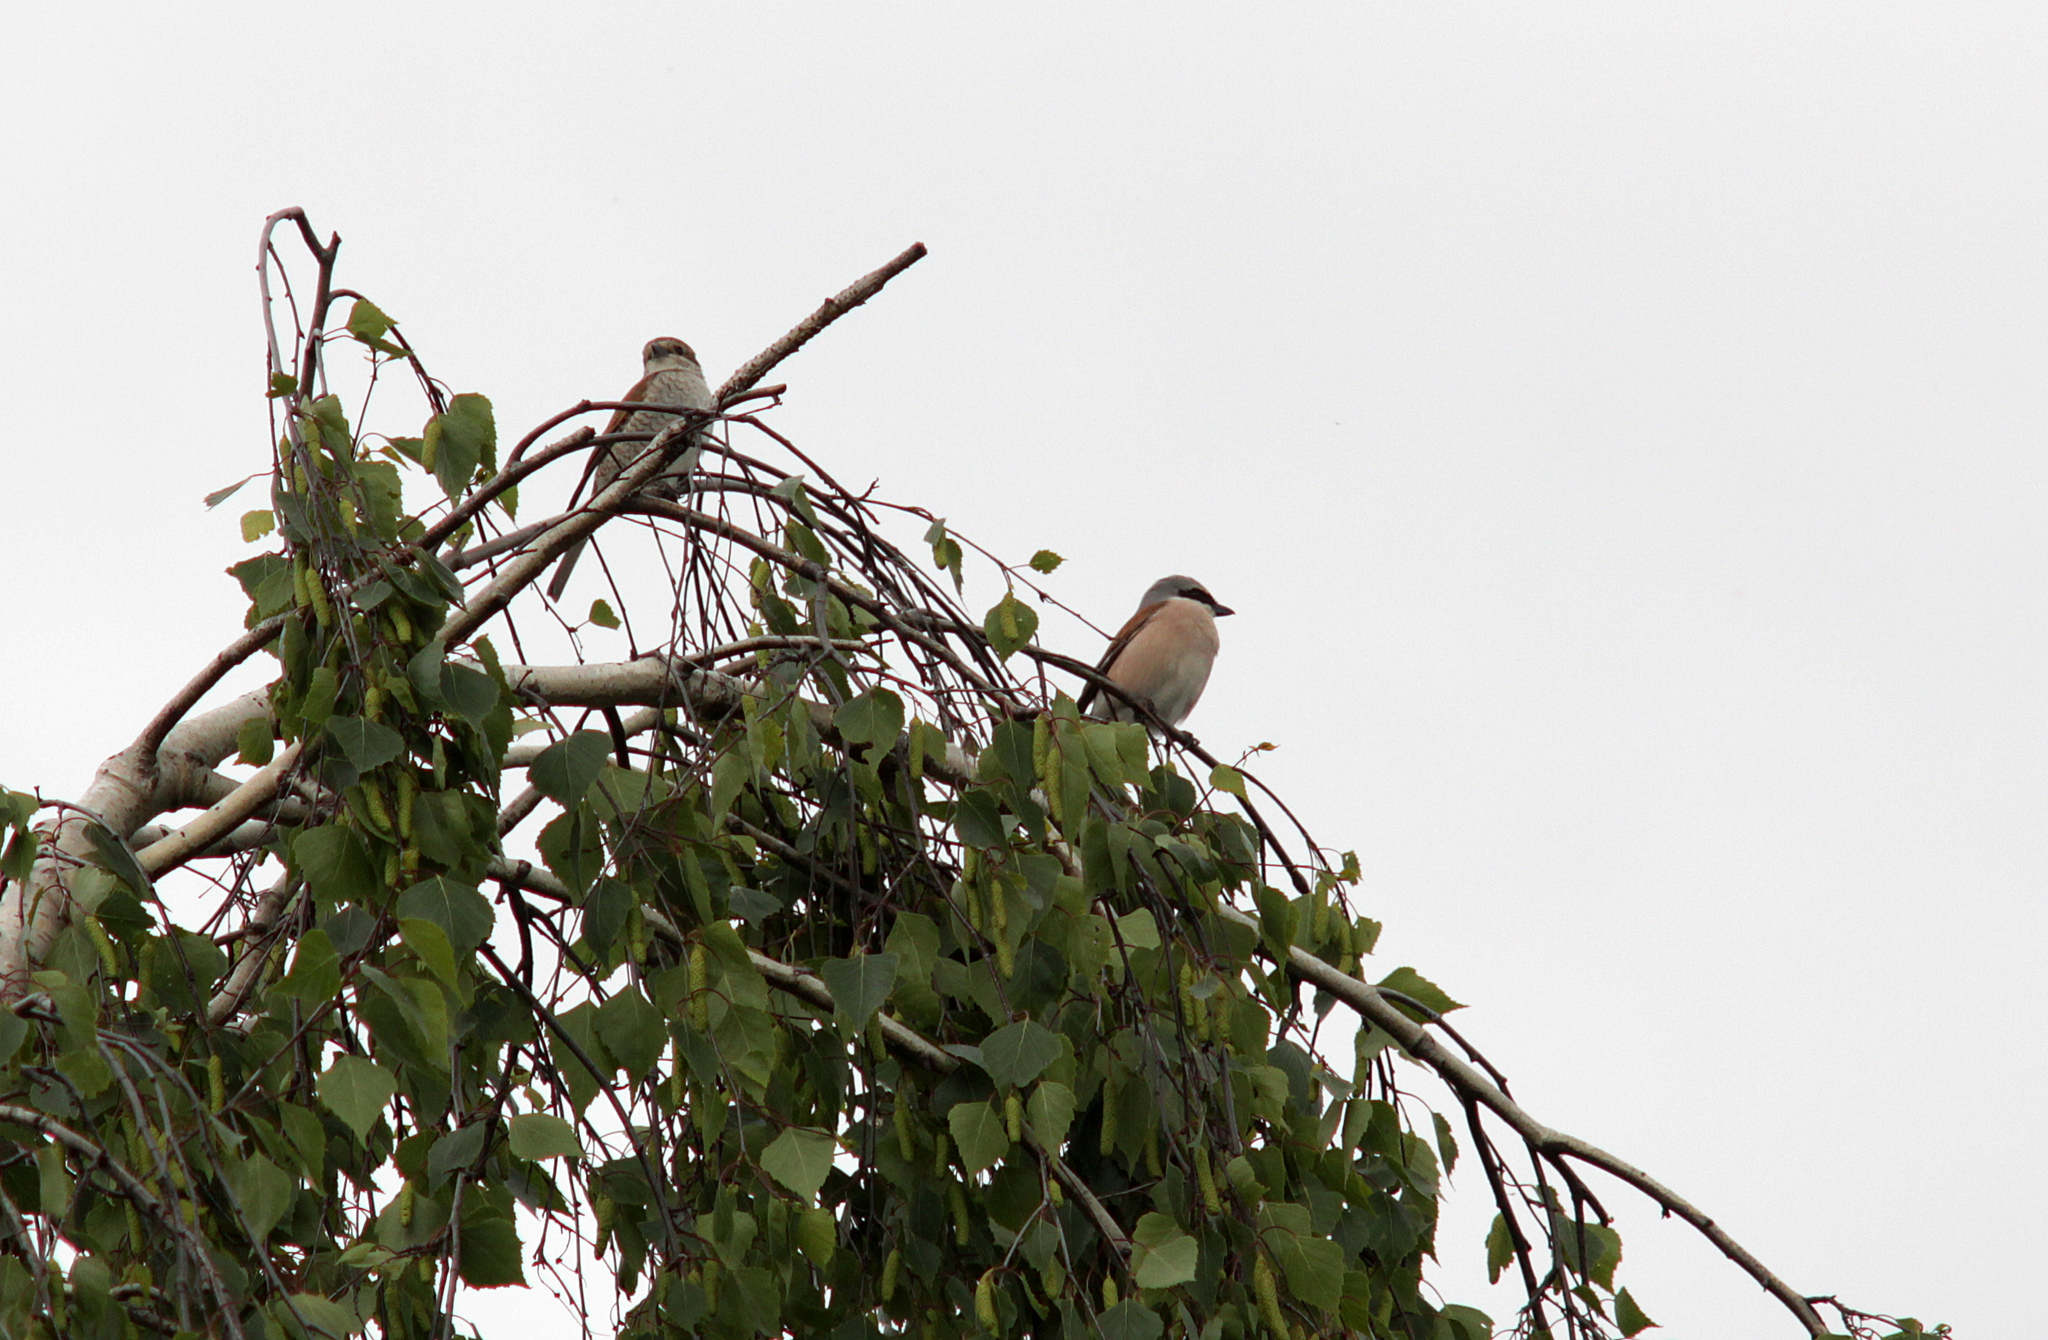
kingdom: Animalia
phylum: Chordata
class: Aves
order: Passeriformes
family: Laniidae
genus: Lanius
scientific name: Lanius collurio
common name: Red-backed shrike
